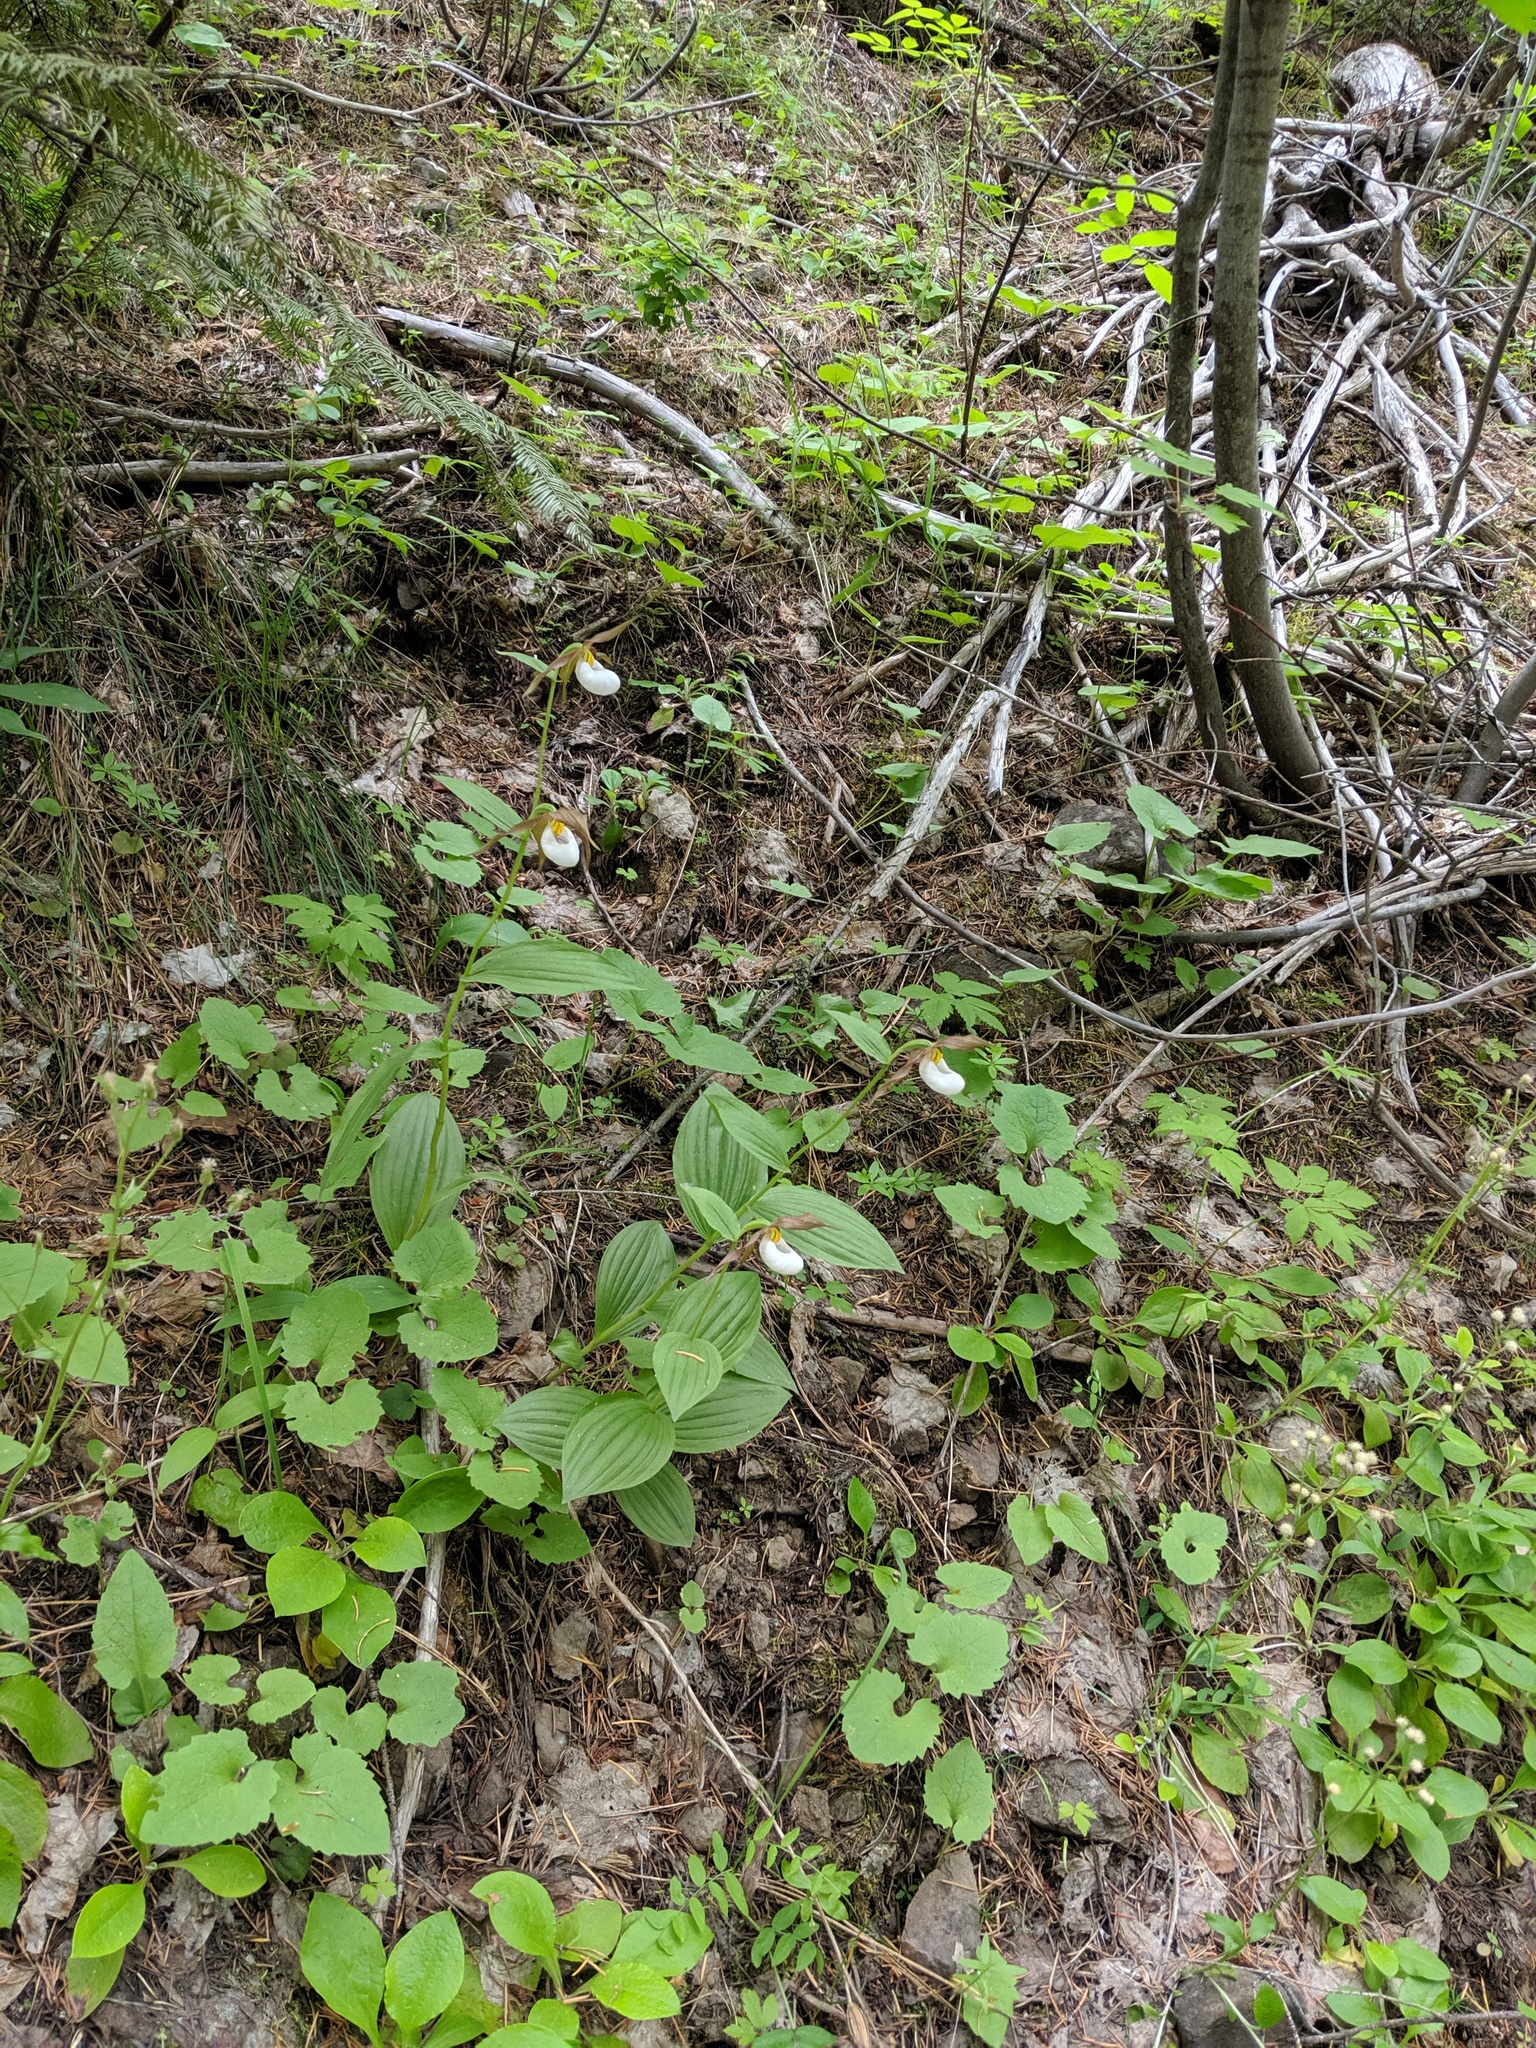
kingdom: Plantae
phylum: Tracheophyta
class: Liliopsida
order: Asparagales
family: Orchidaceae
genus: Cypripedium
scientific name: Cypripedium montanum
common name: Mountain lady's-slipper
